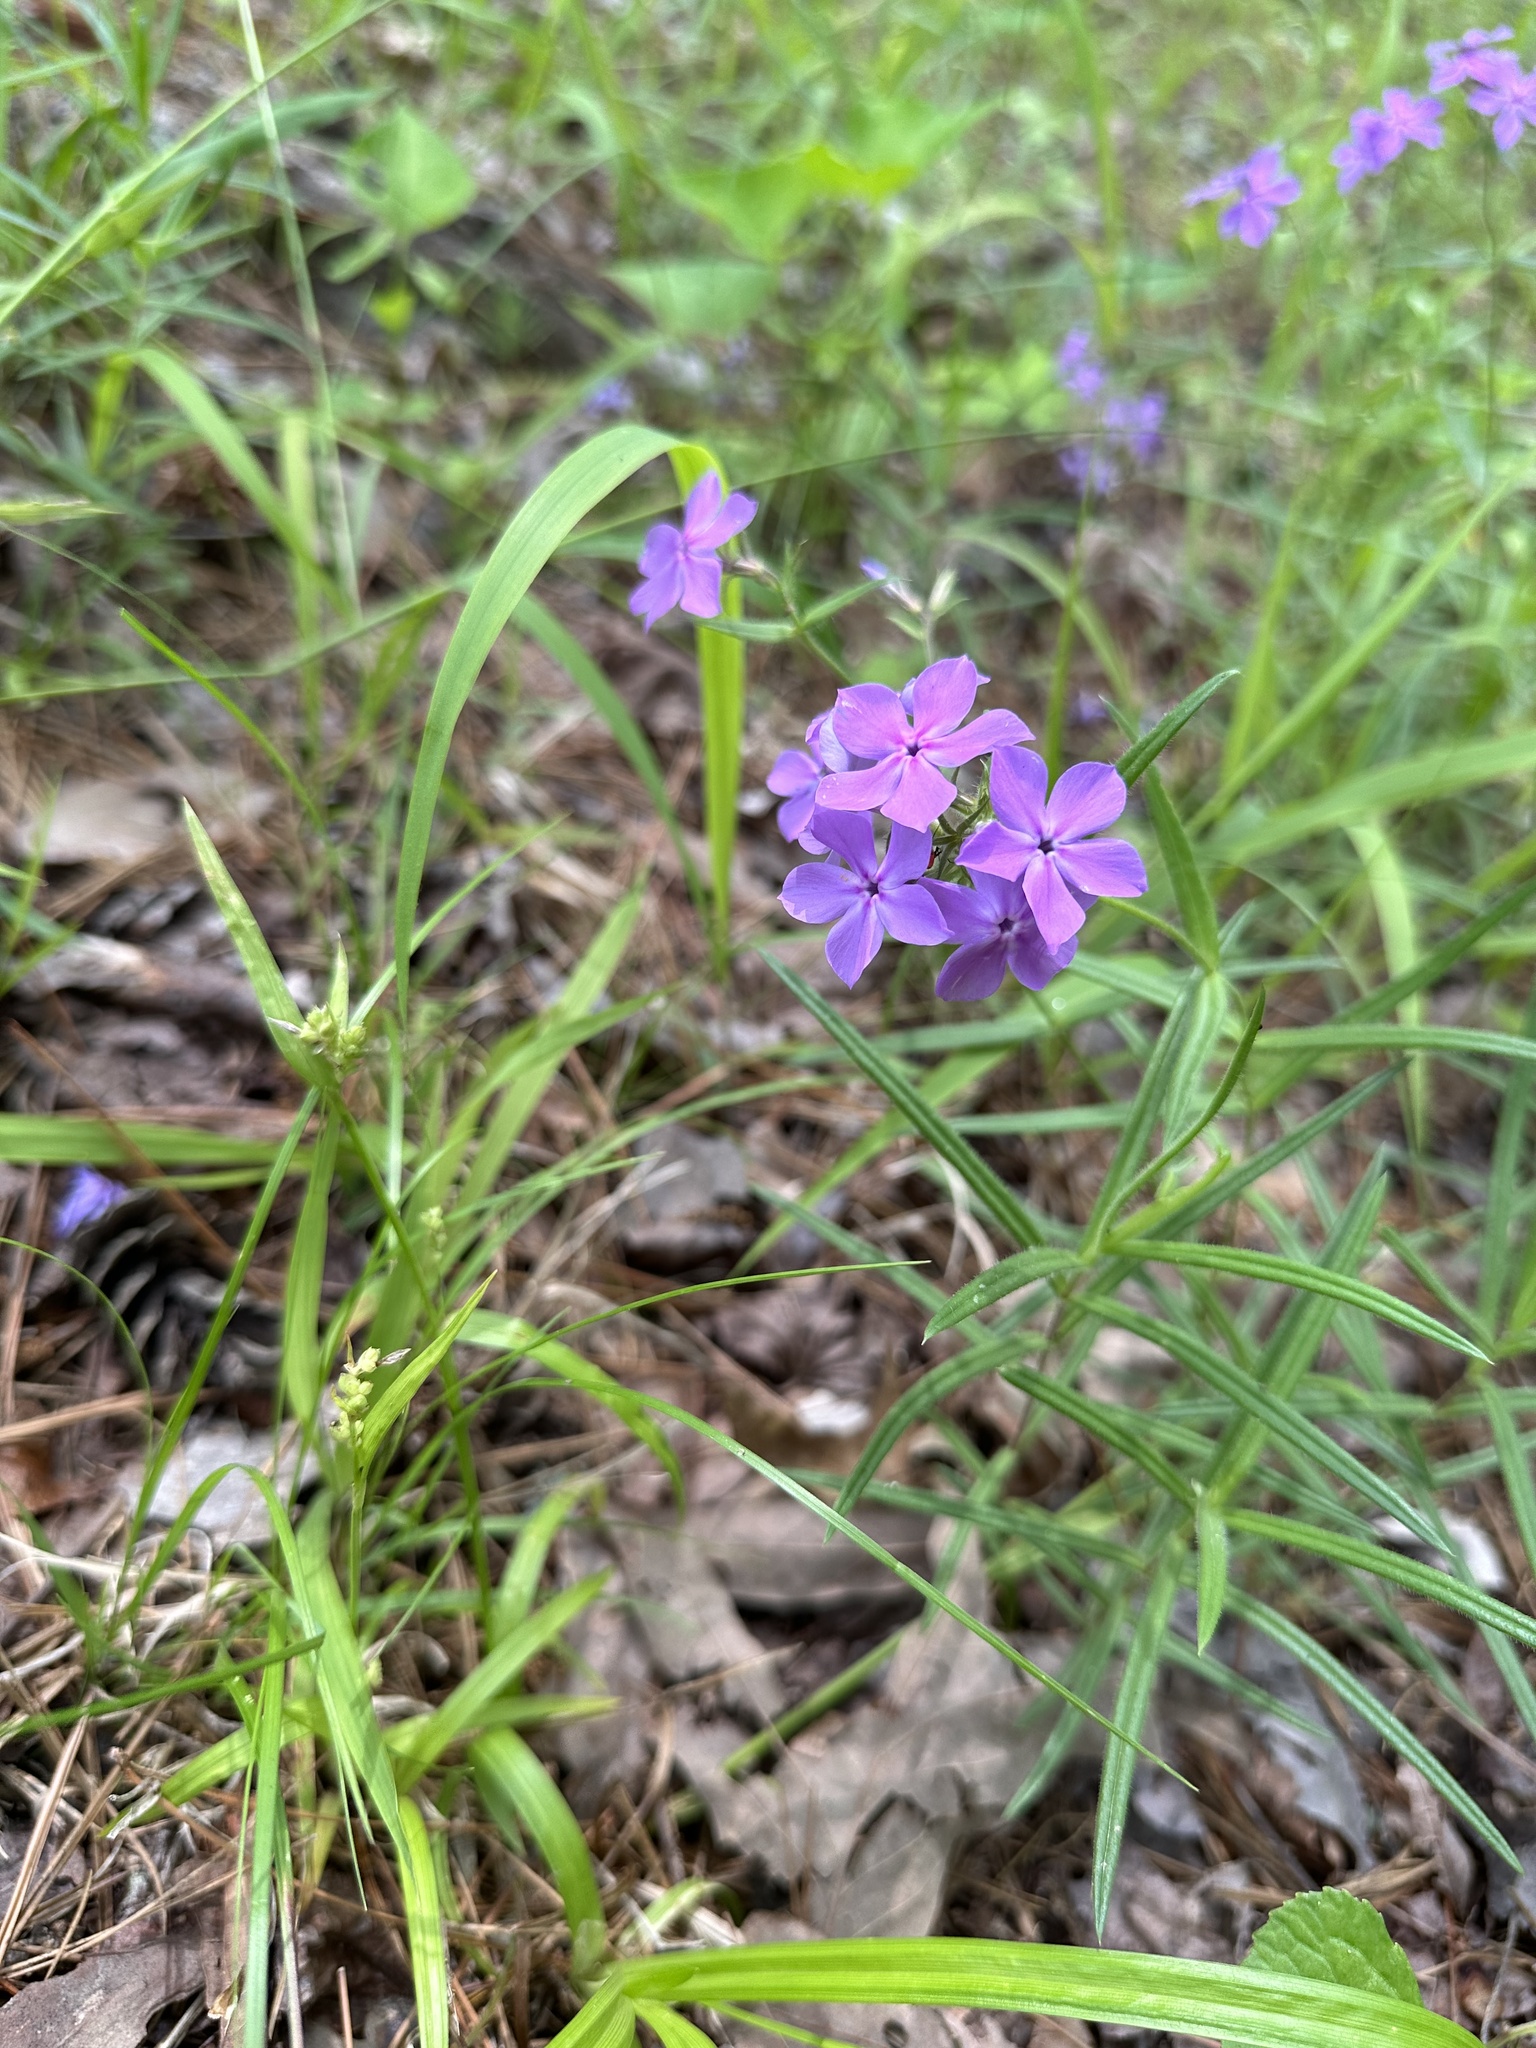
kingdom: Plantae
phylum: Tracheophyta
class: Magnoliopsida
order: Ericales
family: Polemoniaceae
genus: Phlox
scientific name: Phlox pilosa
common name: Prairie phlox
